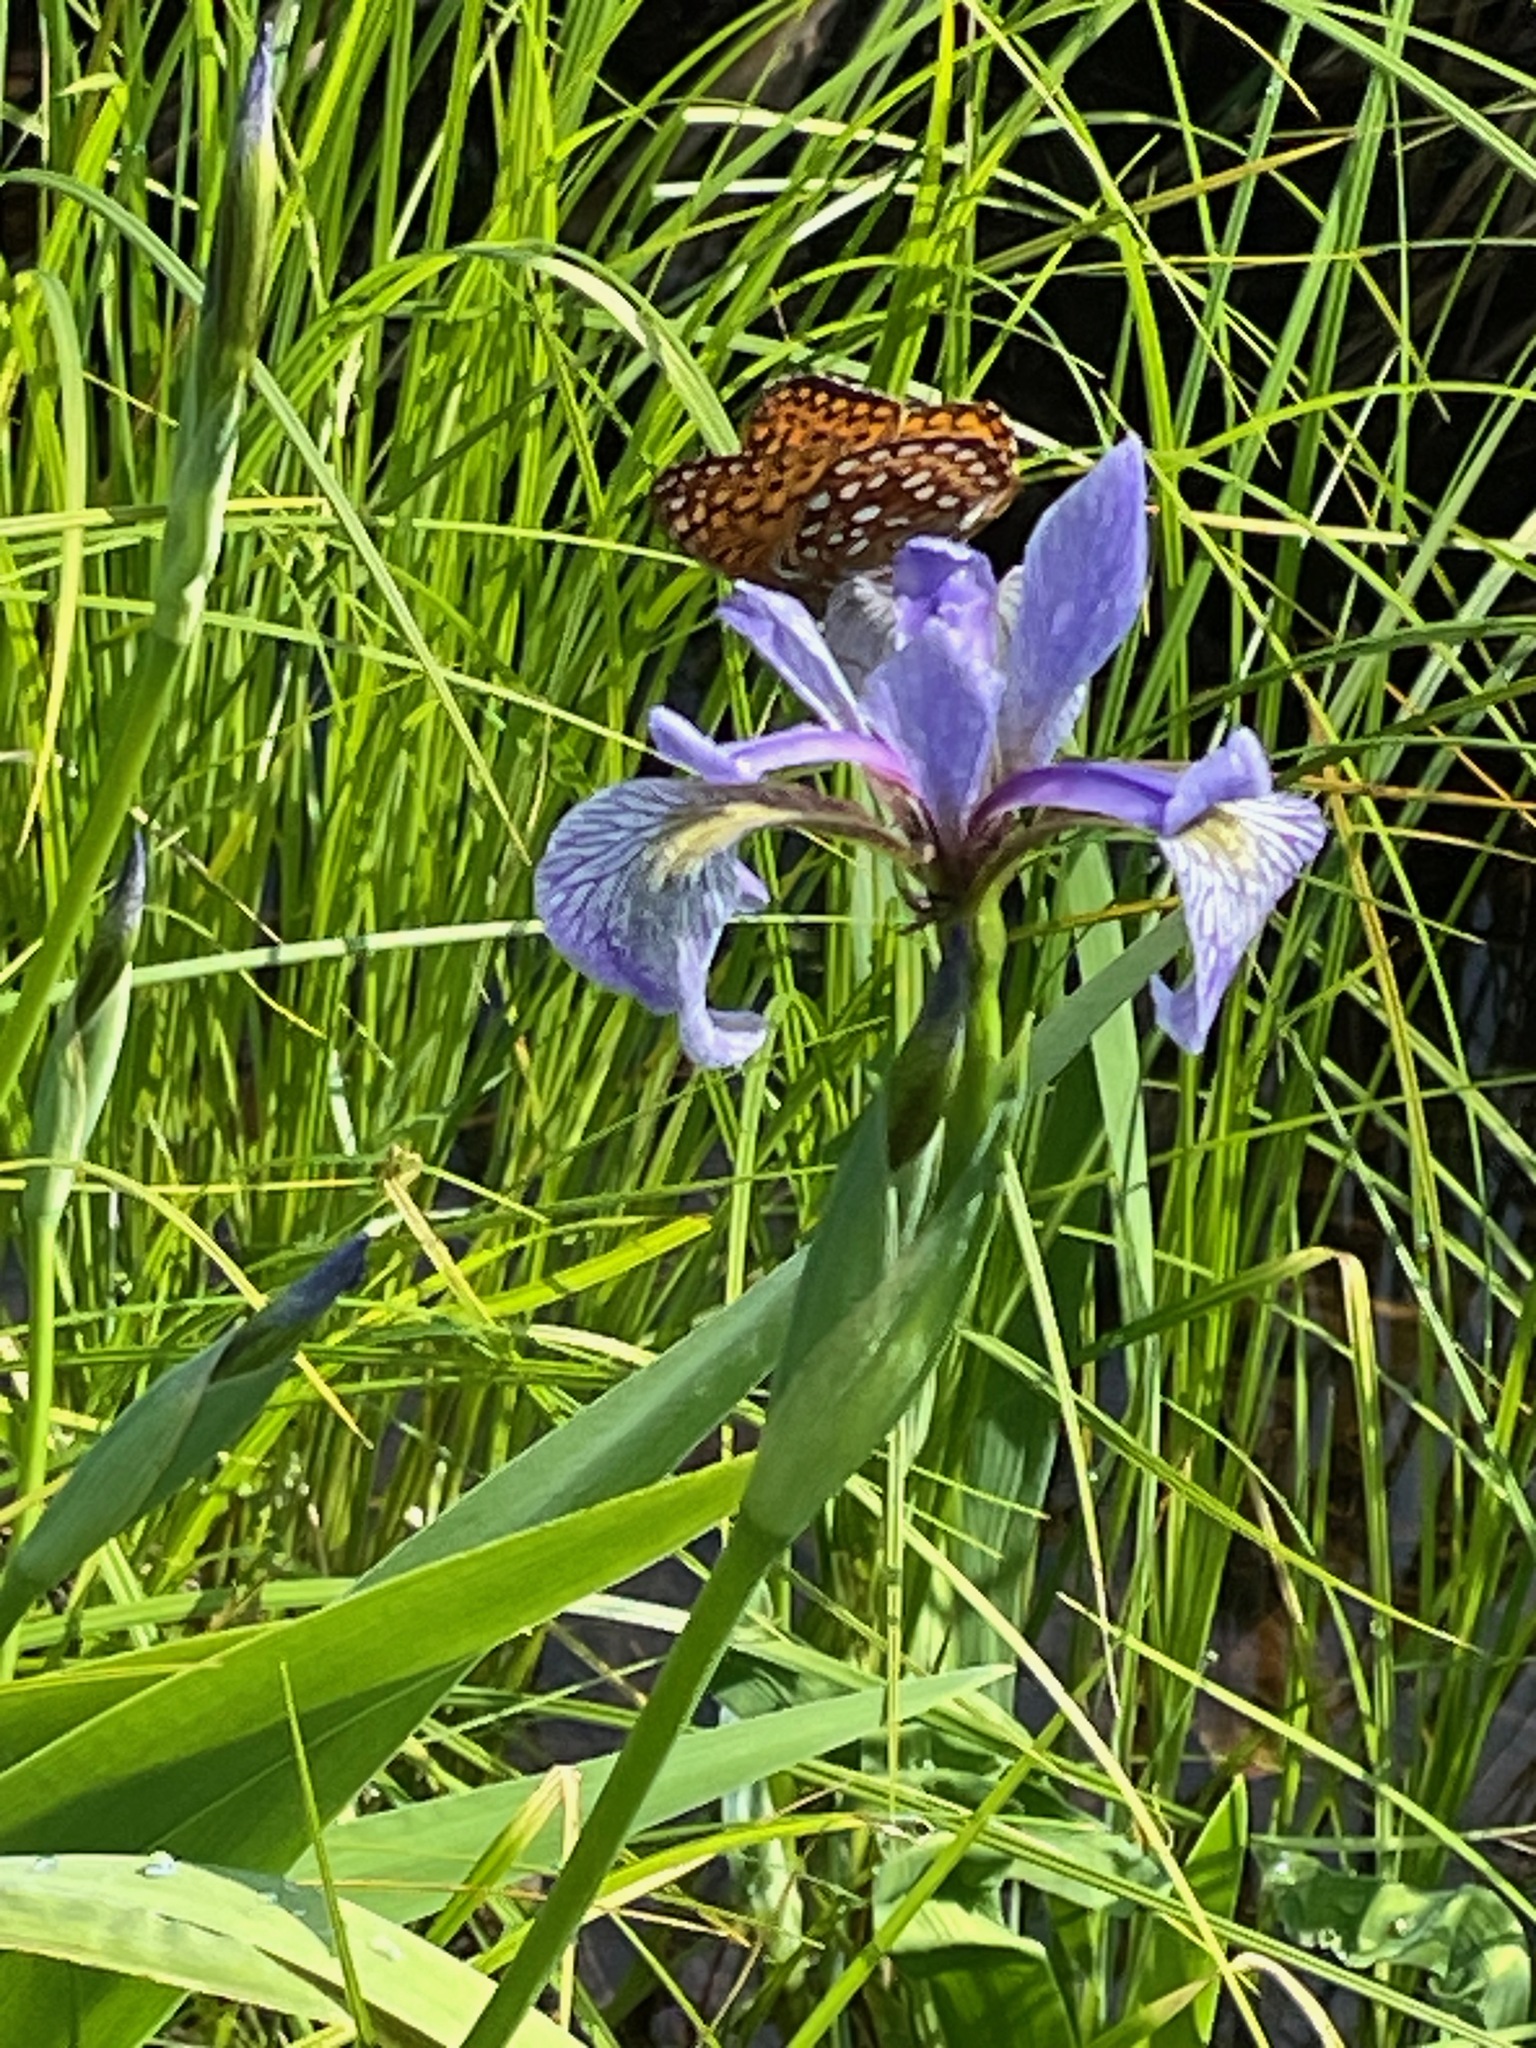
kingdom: Animalia
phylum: Arthropoda
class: Insecta
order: Lepidoptera
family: Nymphalidae
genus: Speyeria
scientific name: Speyeria atlantis
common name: Atlantis fritillary
